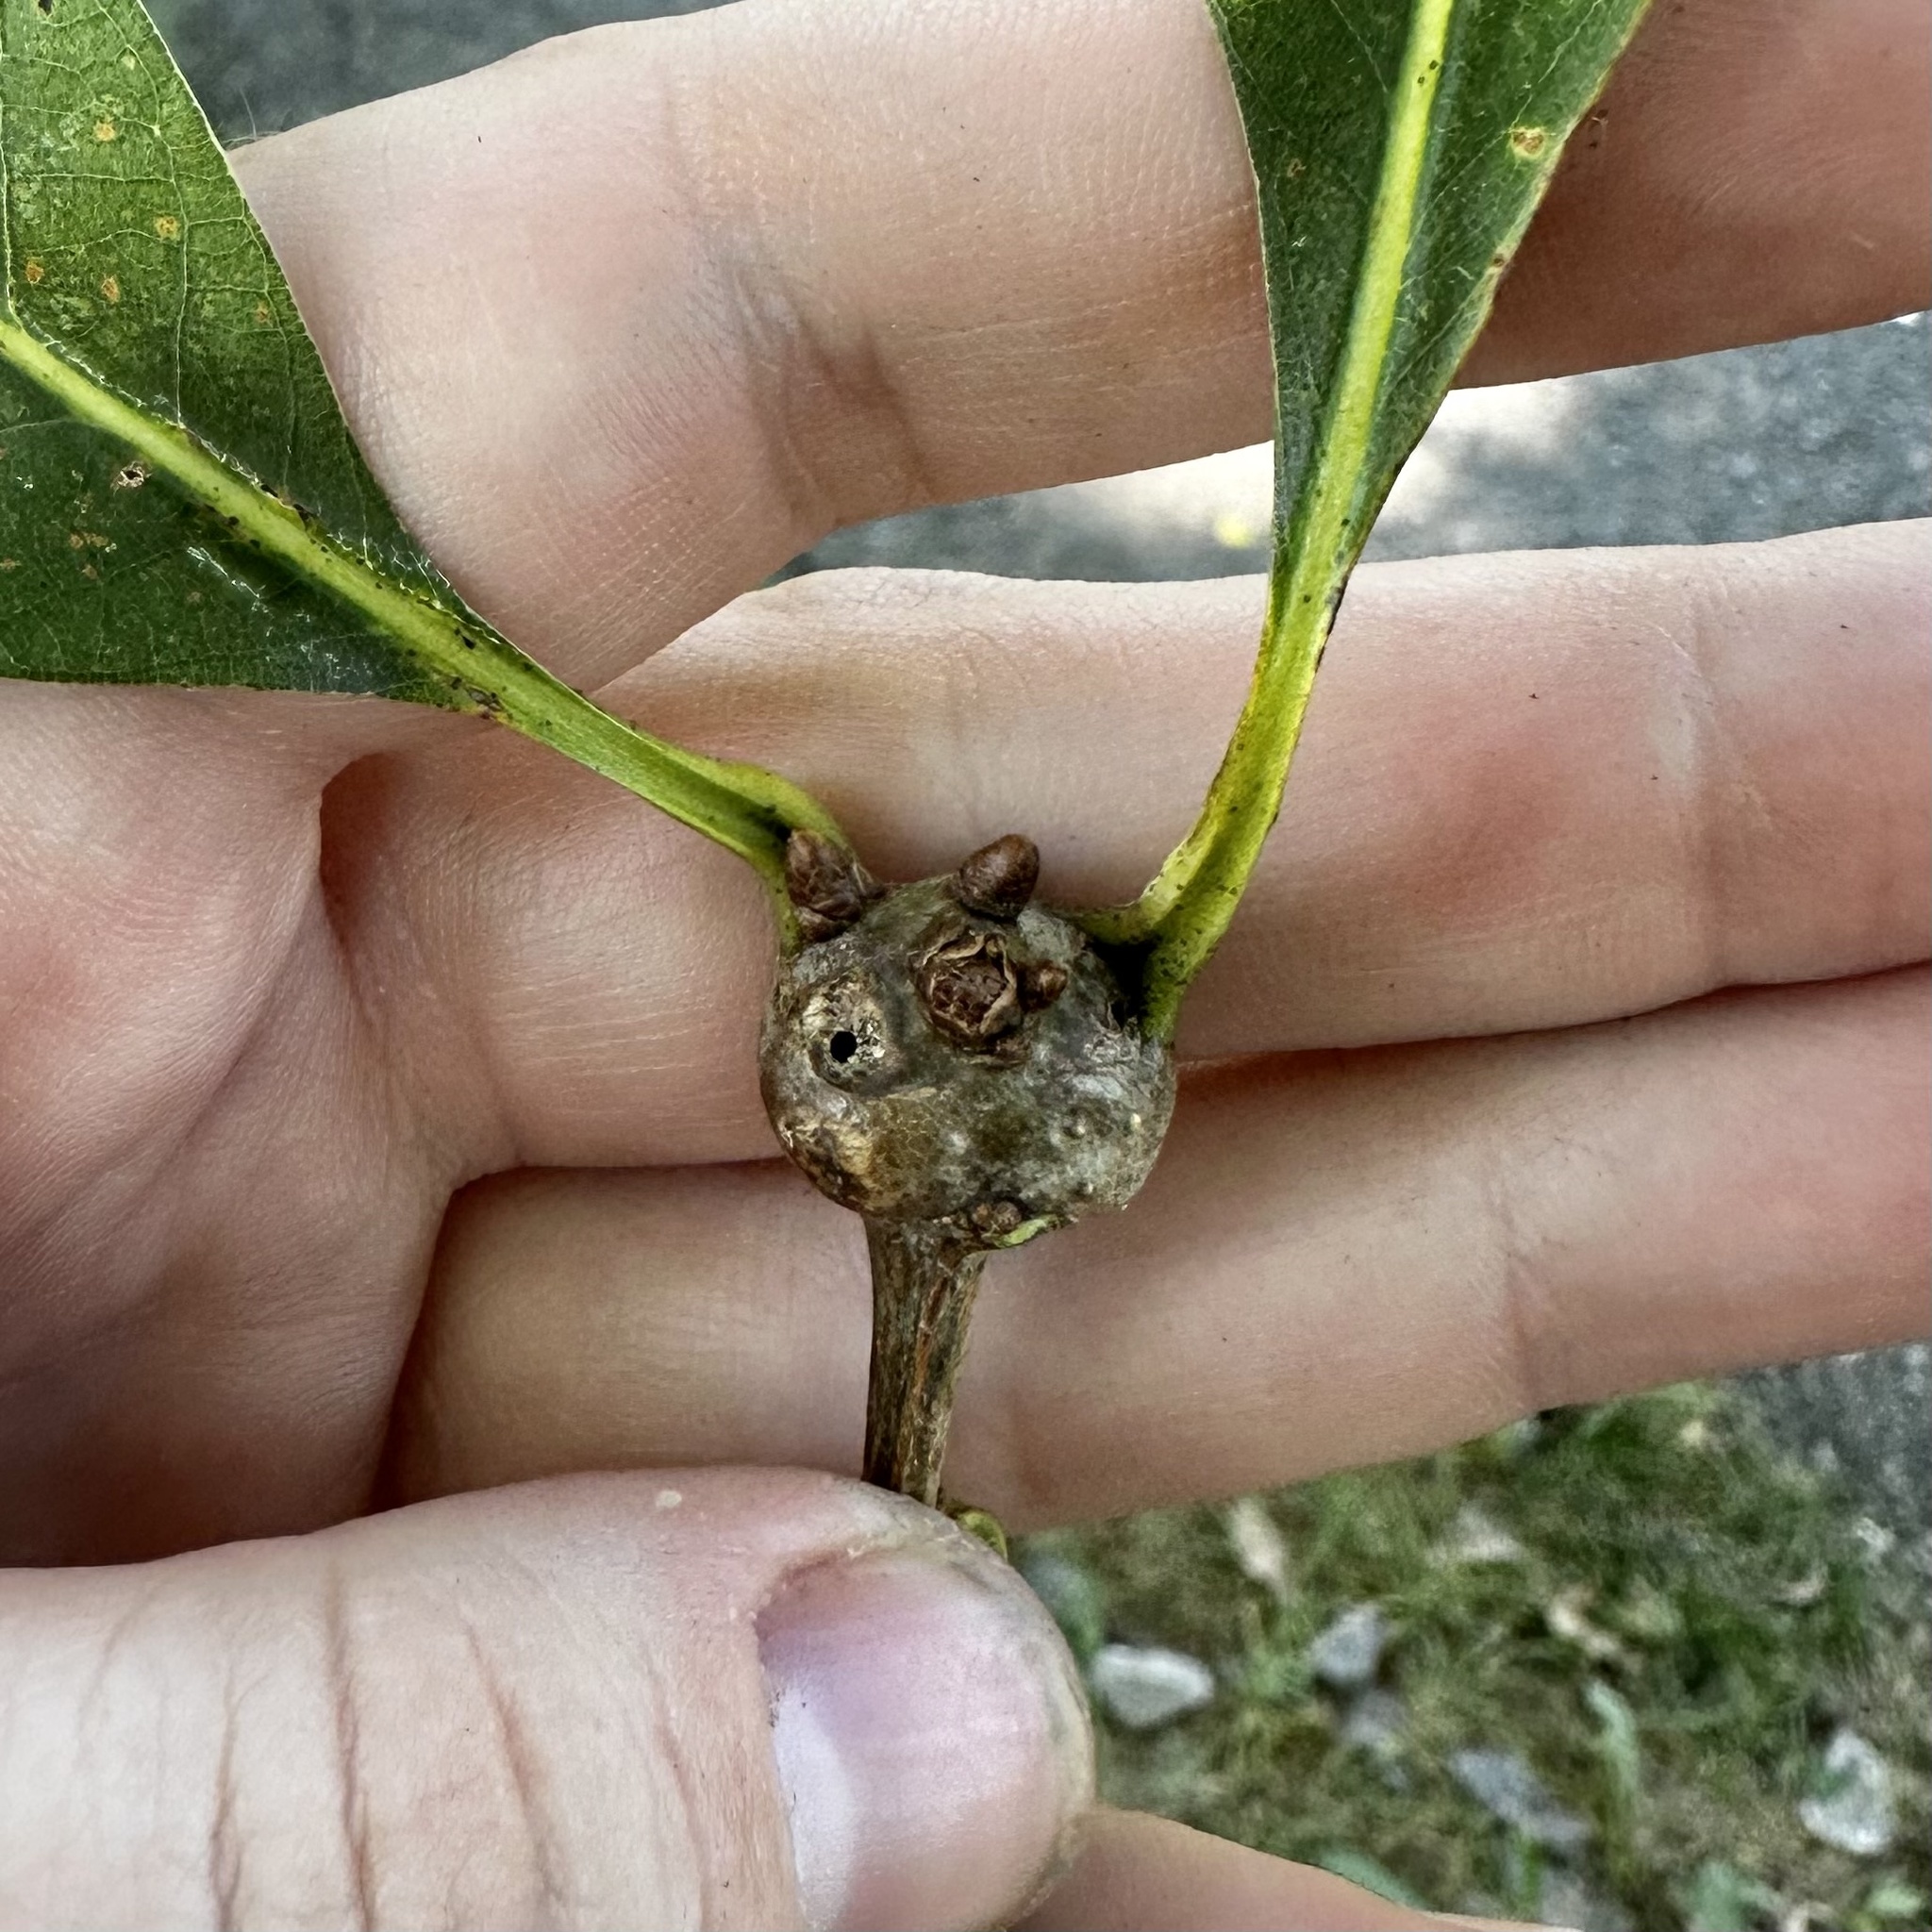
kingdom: Animalia
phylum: Arthropoda
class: Insecta
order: Hymenoptera
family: Cynipidae
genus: Callirhytis
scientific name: Callirhytis clavula
